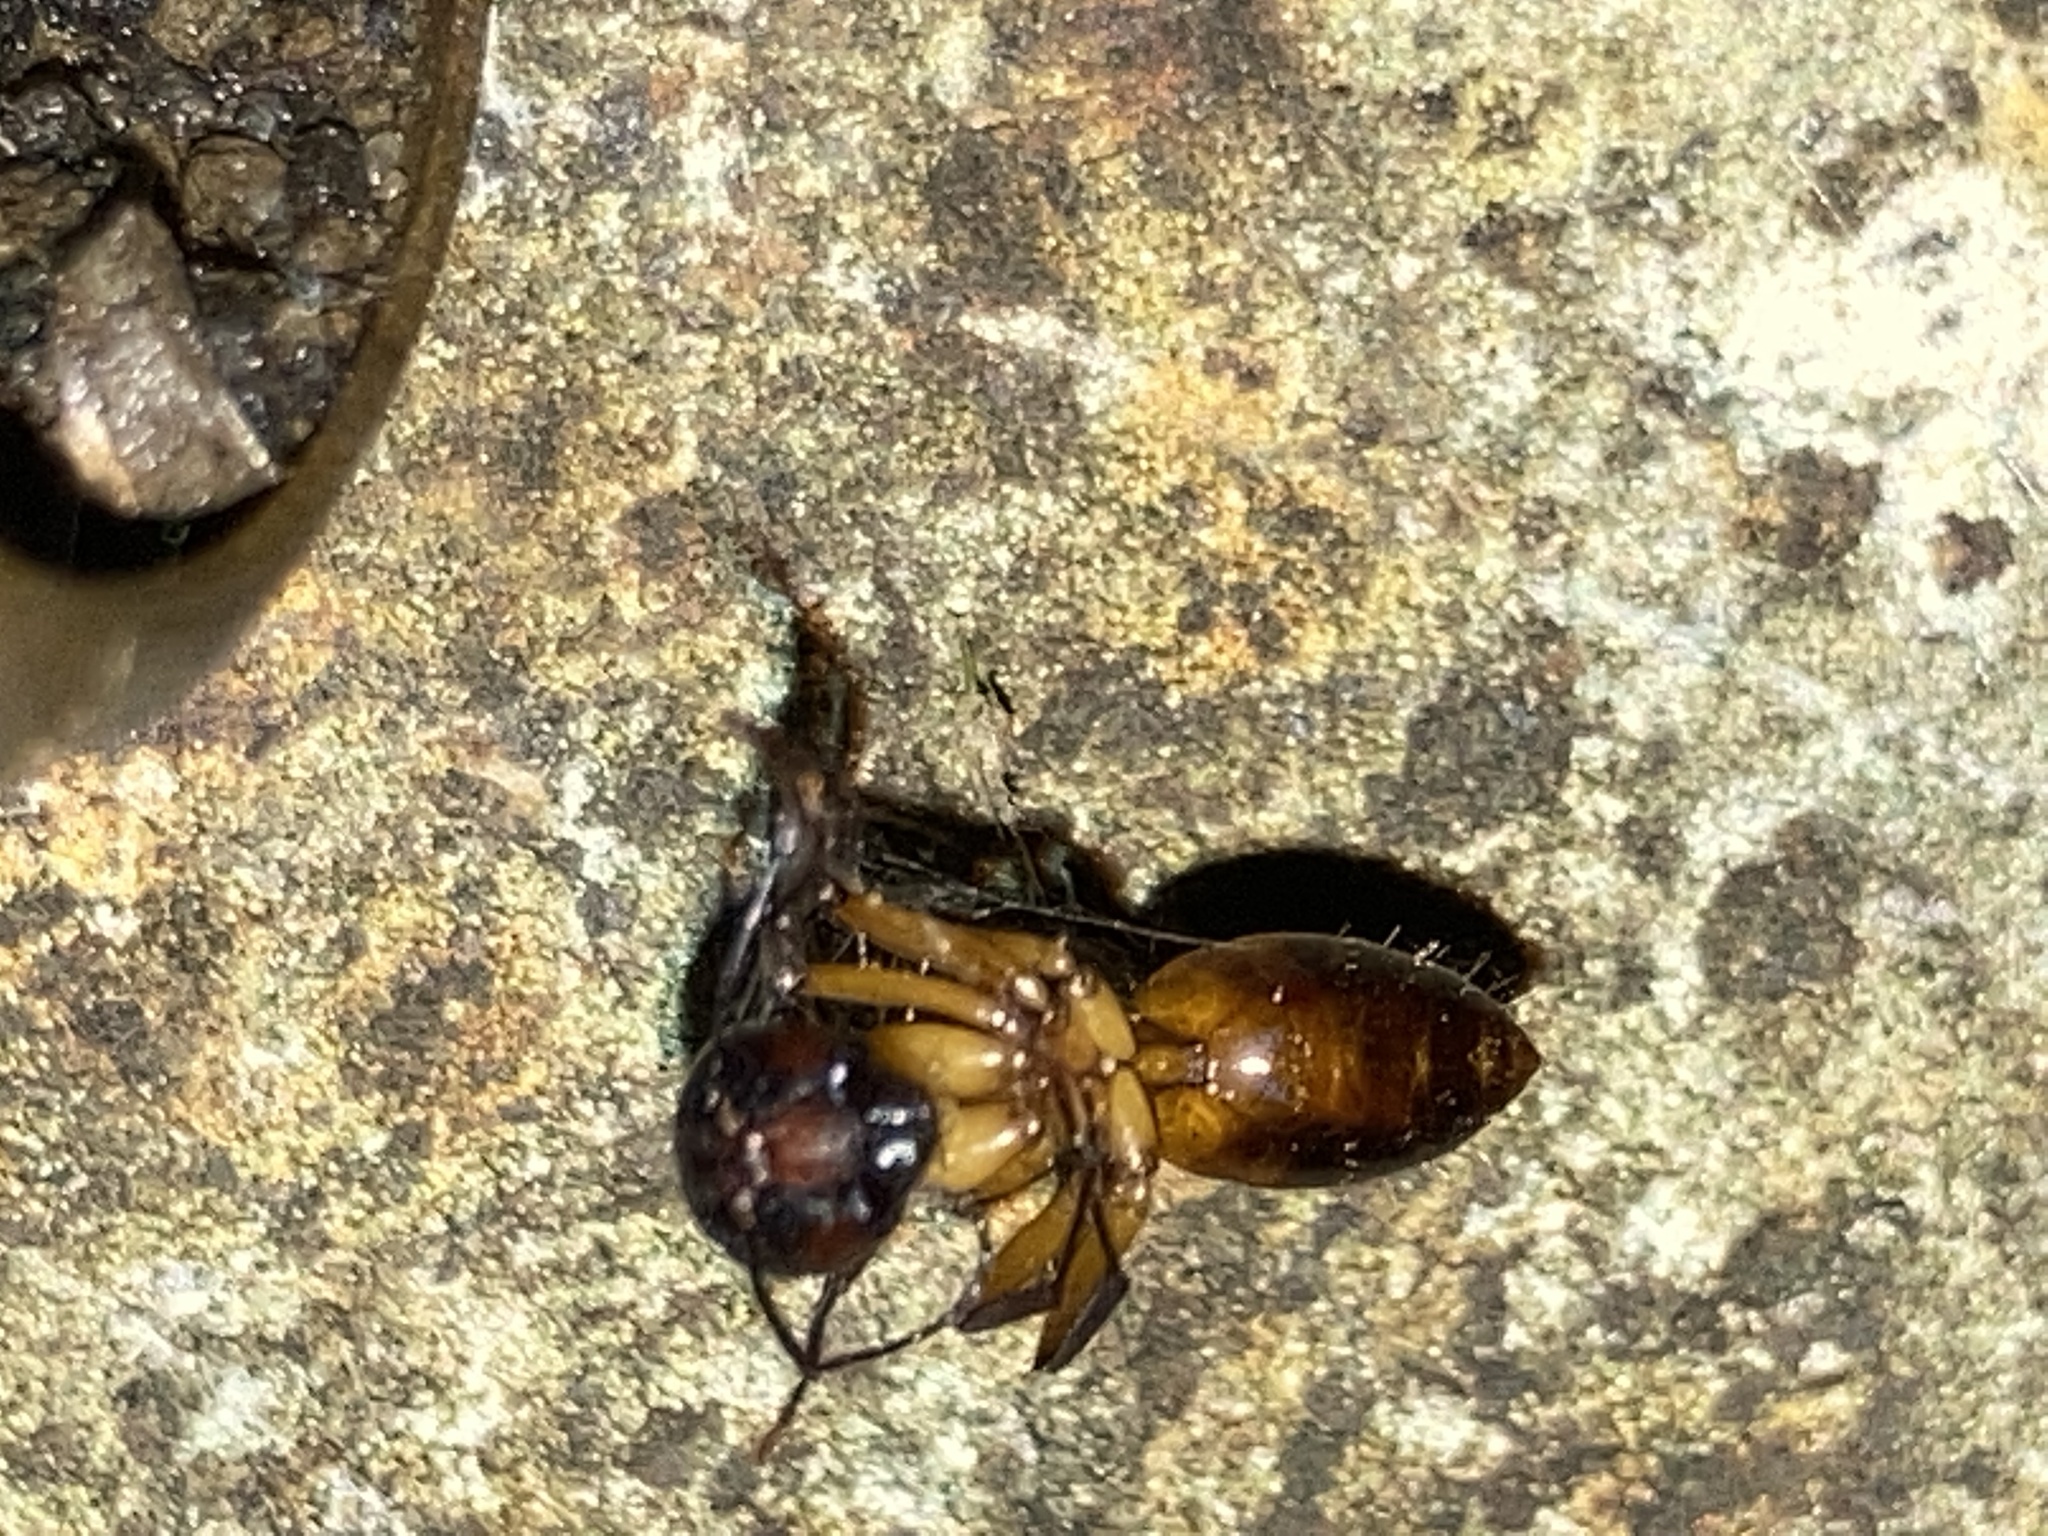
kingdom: Animalia
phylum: Arthropoda
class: Insecta
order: Hymenoptera
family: Formicidae
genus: Camponotus
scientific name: Camponotus americanus
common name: American carpenter ant
